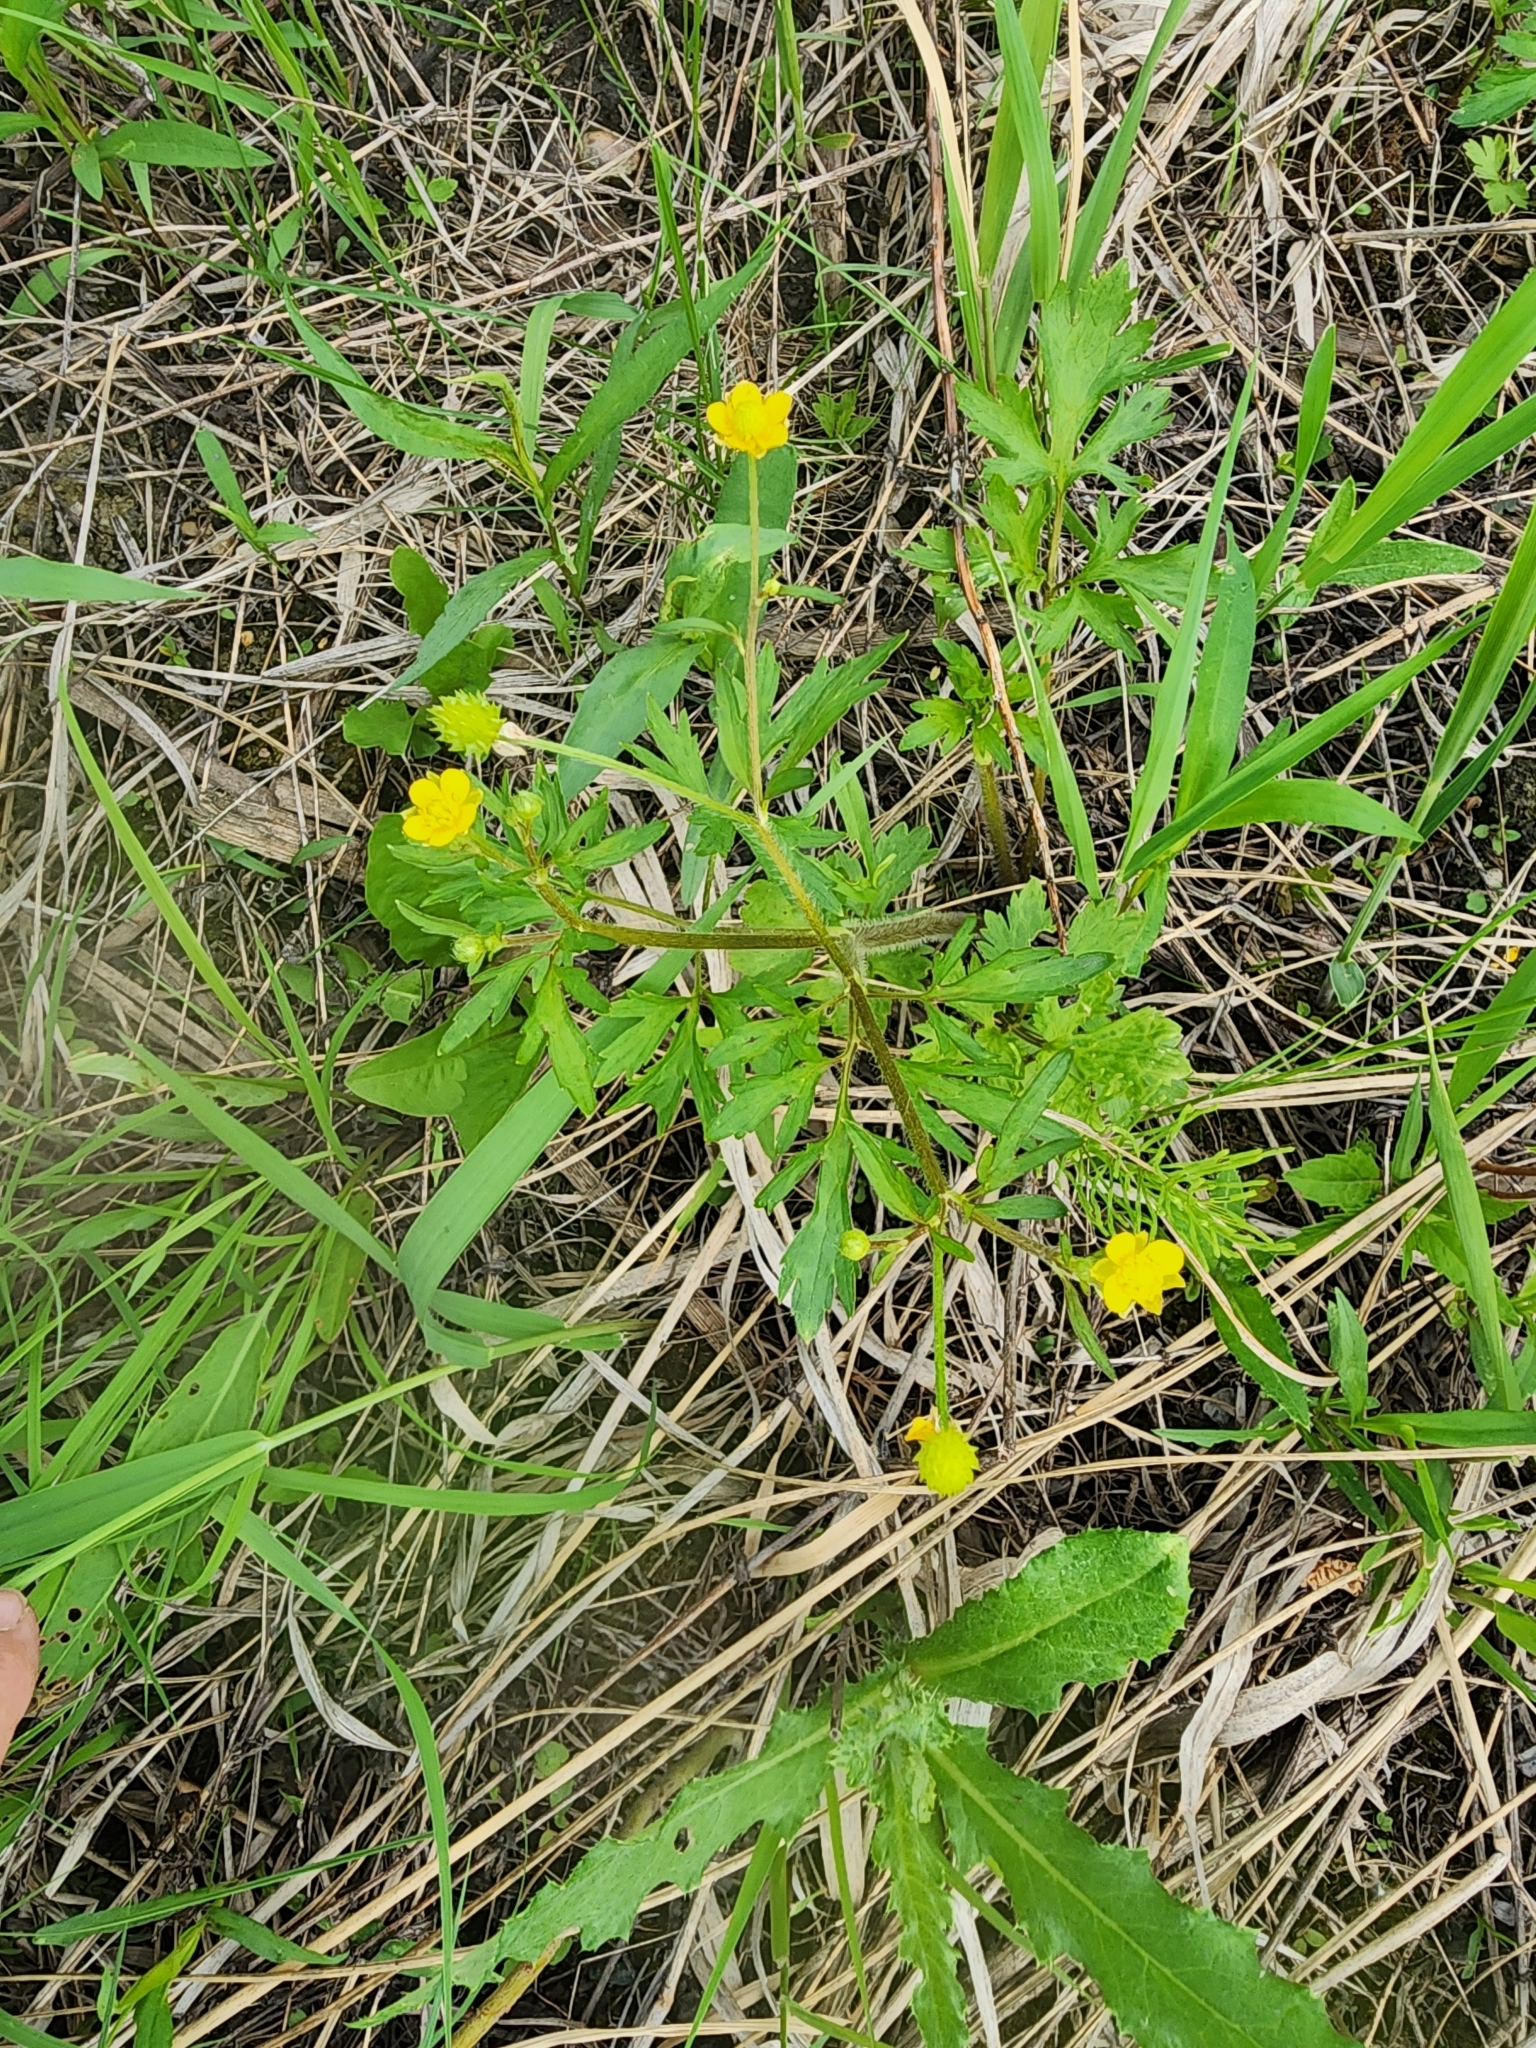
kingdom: Plantae
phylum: Tracheophyta
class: Magnoliopsida
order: Ranunculales
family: Ranunculaceae
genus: Ranunculus
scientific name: Ranunculus macounii
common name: Macoun's buttercup
